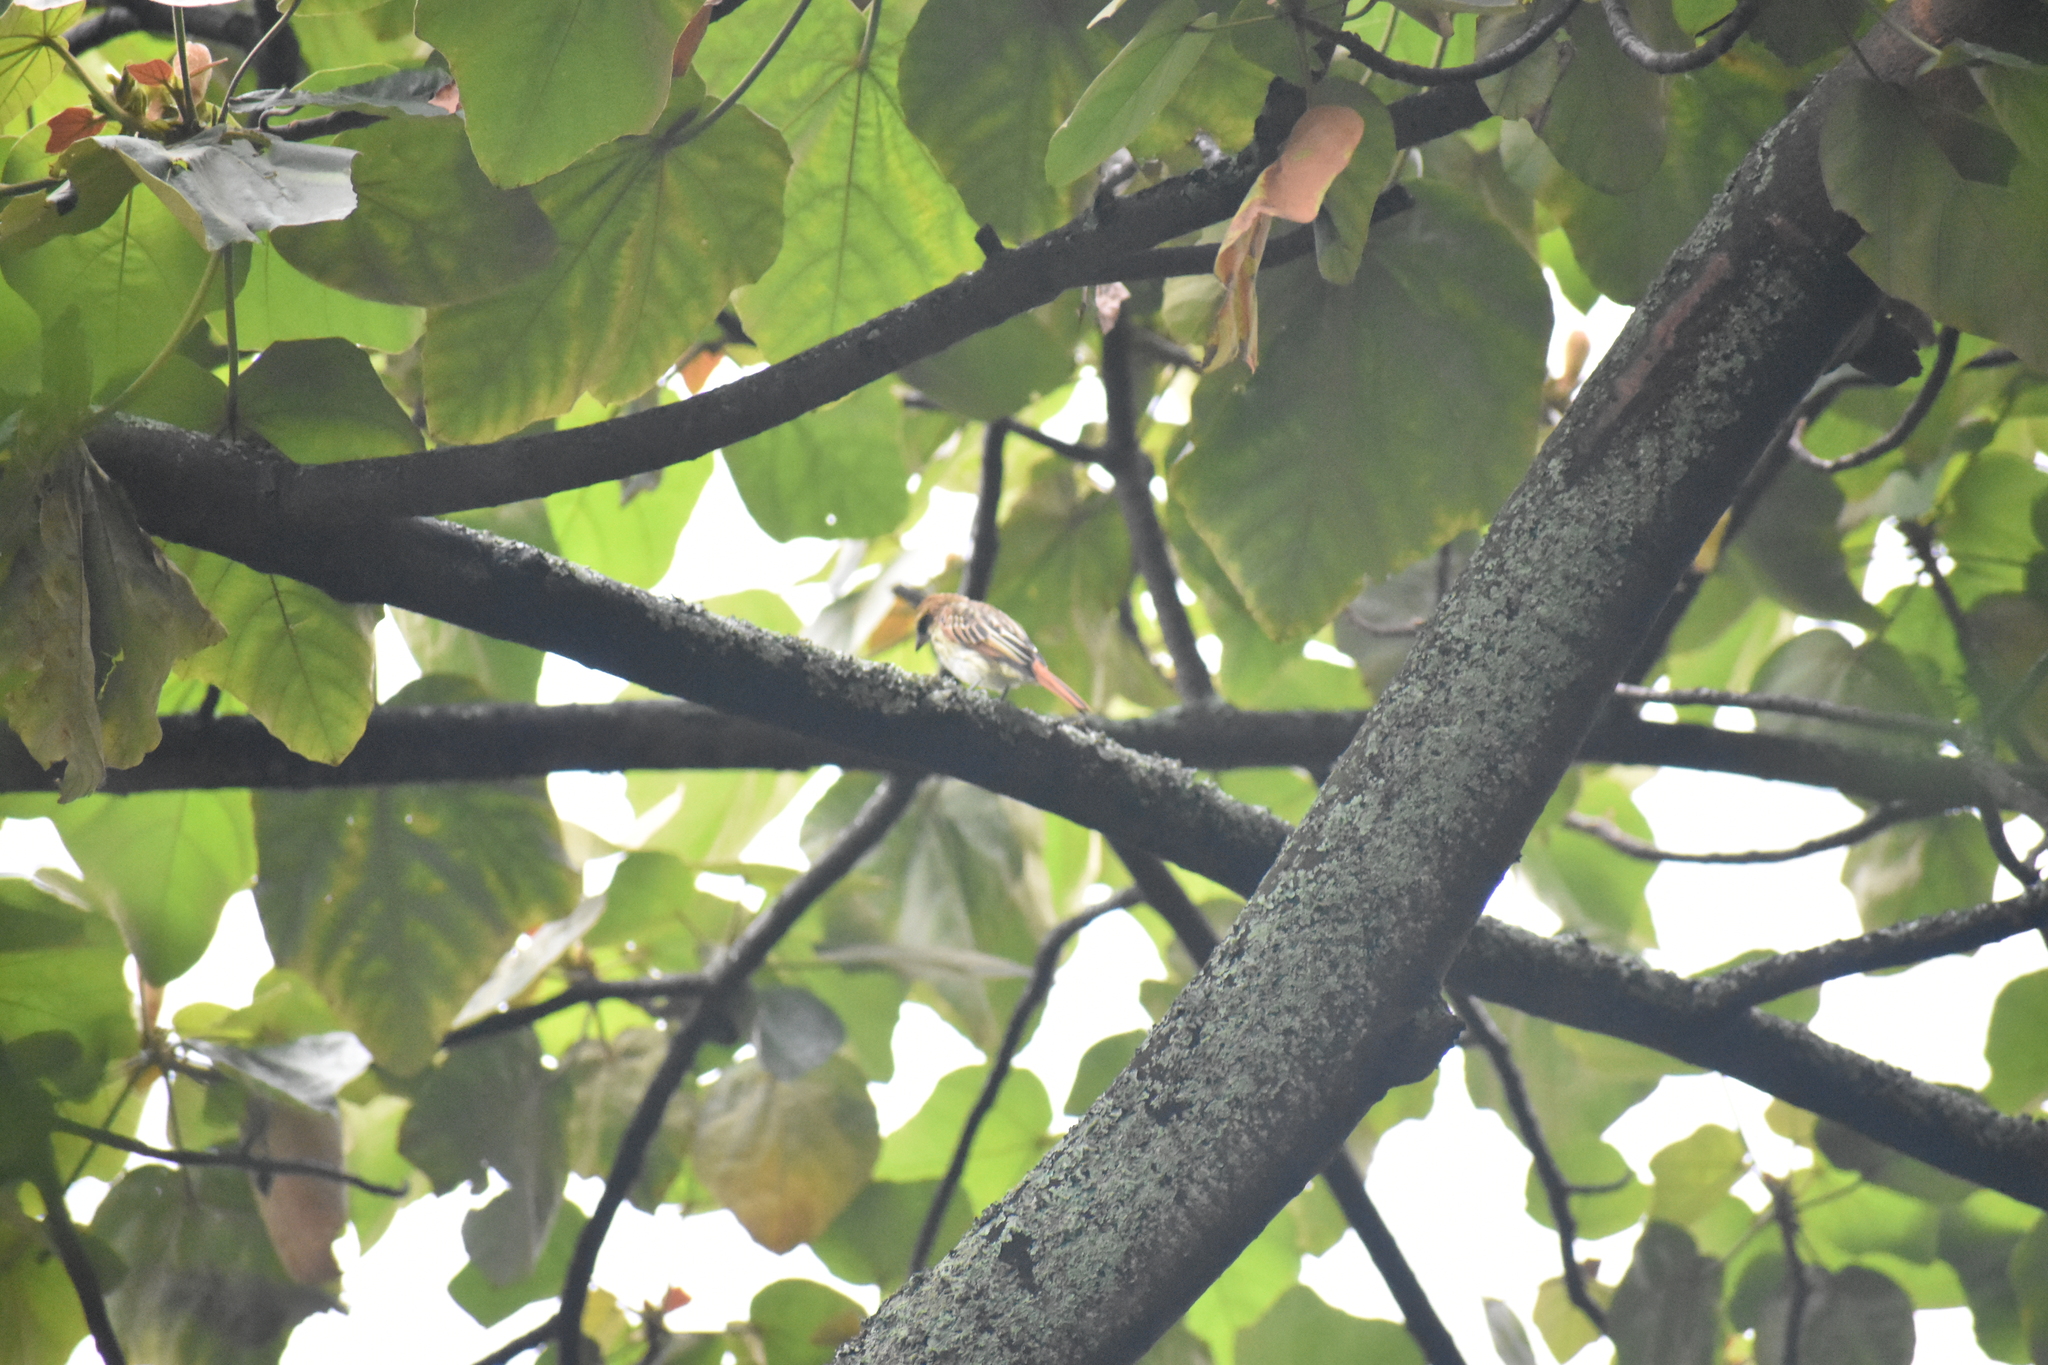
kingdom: Animalia
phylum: Chordata
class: Aves
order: Passeriformes
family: Tyrannidae
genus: Myiodynastes
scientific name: Myiodynastes maculatus
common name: Streaked flycatcher
